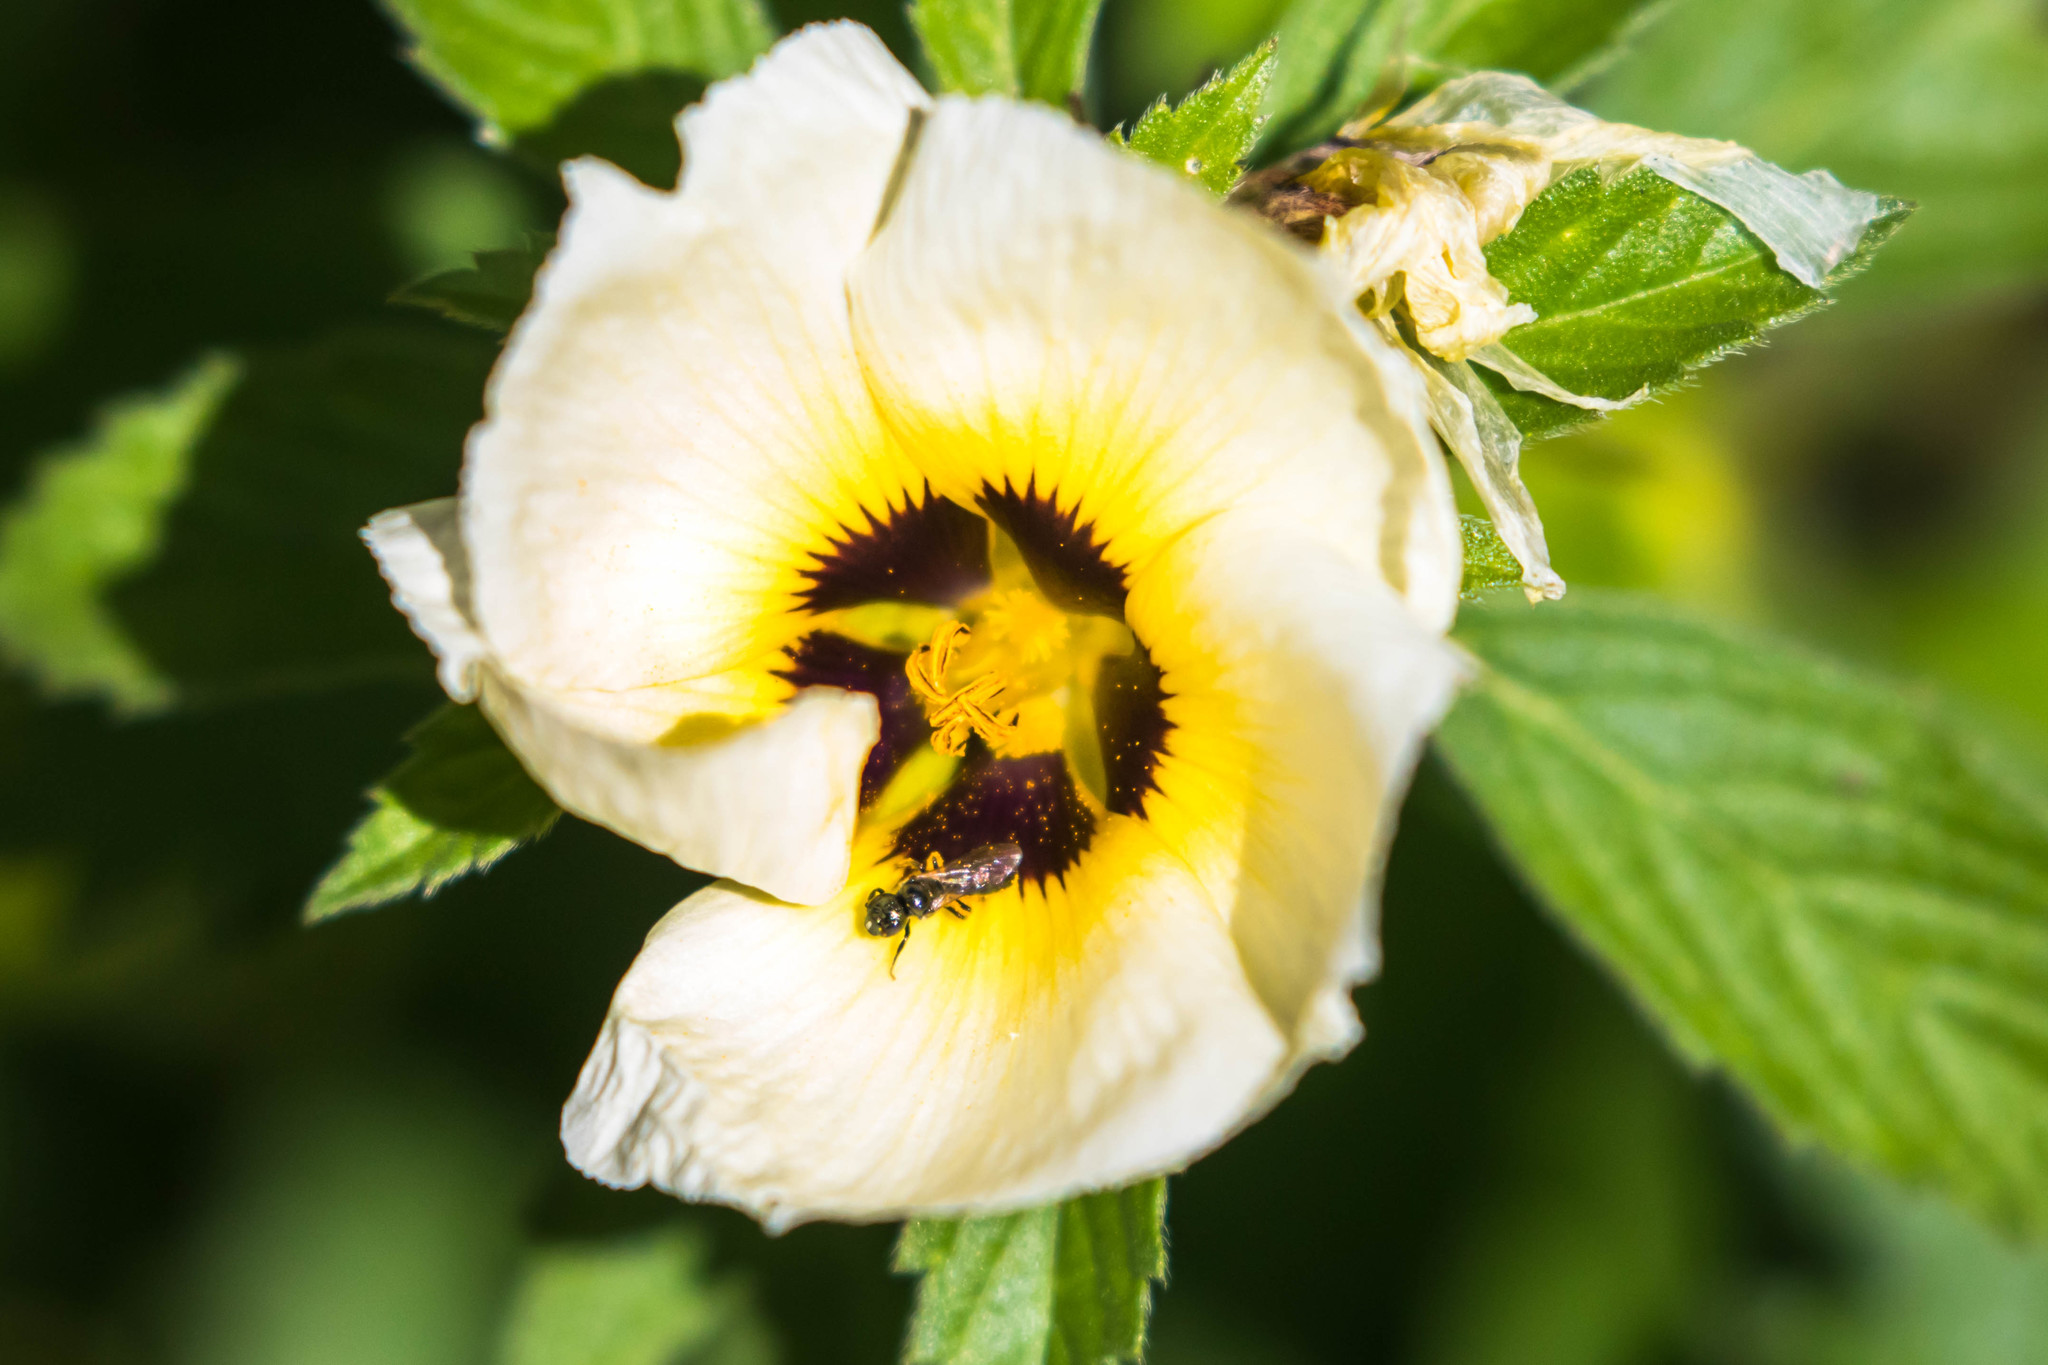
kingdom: Animalia
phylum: Arthropoda
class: Insecta
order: Hymenoptera
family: Apidae
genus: Ceratina
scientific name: Ceratina
